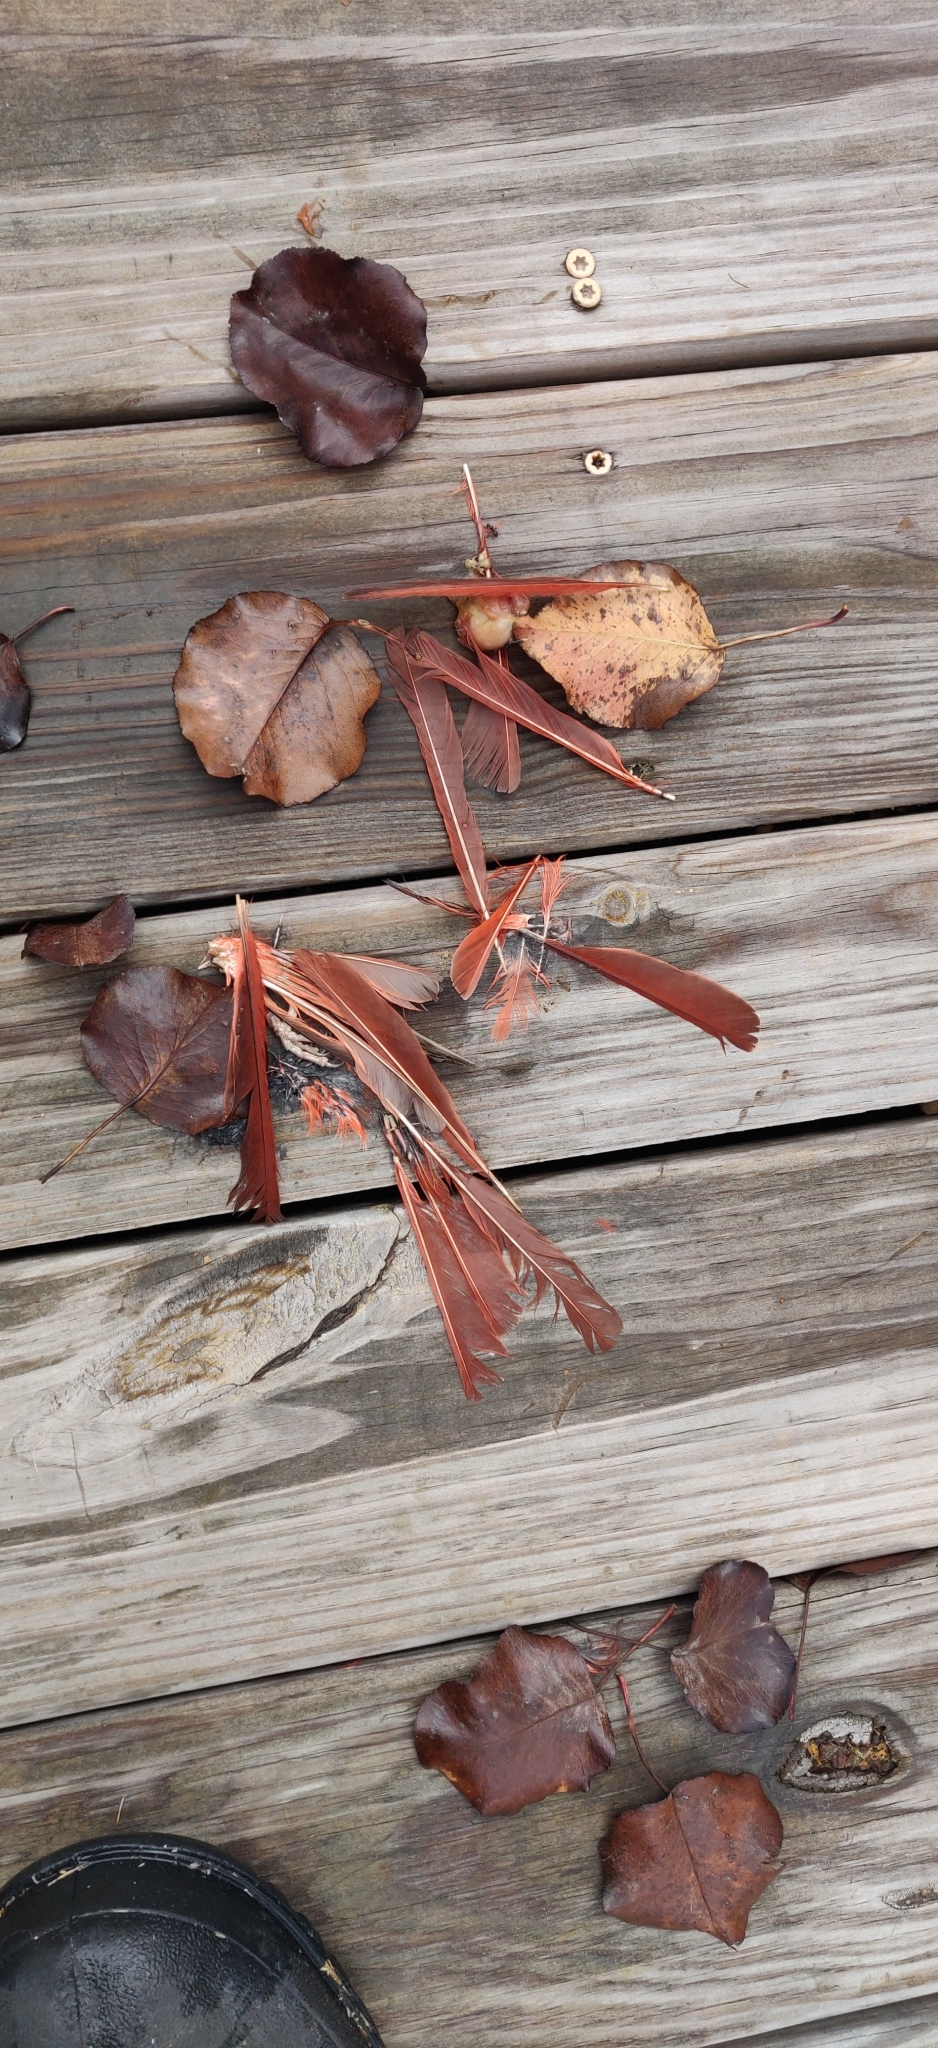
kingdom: Animalia
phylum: Chordata
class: Aves
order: Passeriformes
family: Cardinalidae
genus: Cardinalis
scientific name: Cardinalis cardinalis
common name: Northern cardinal
